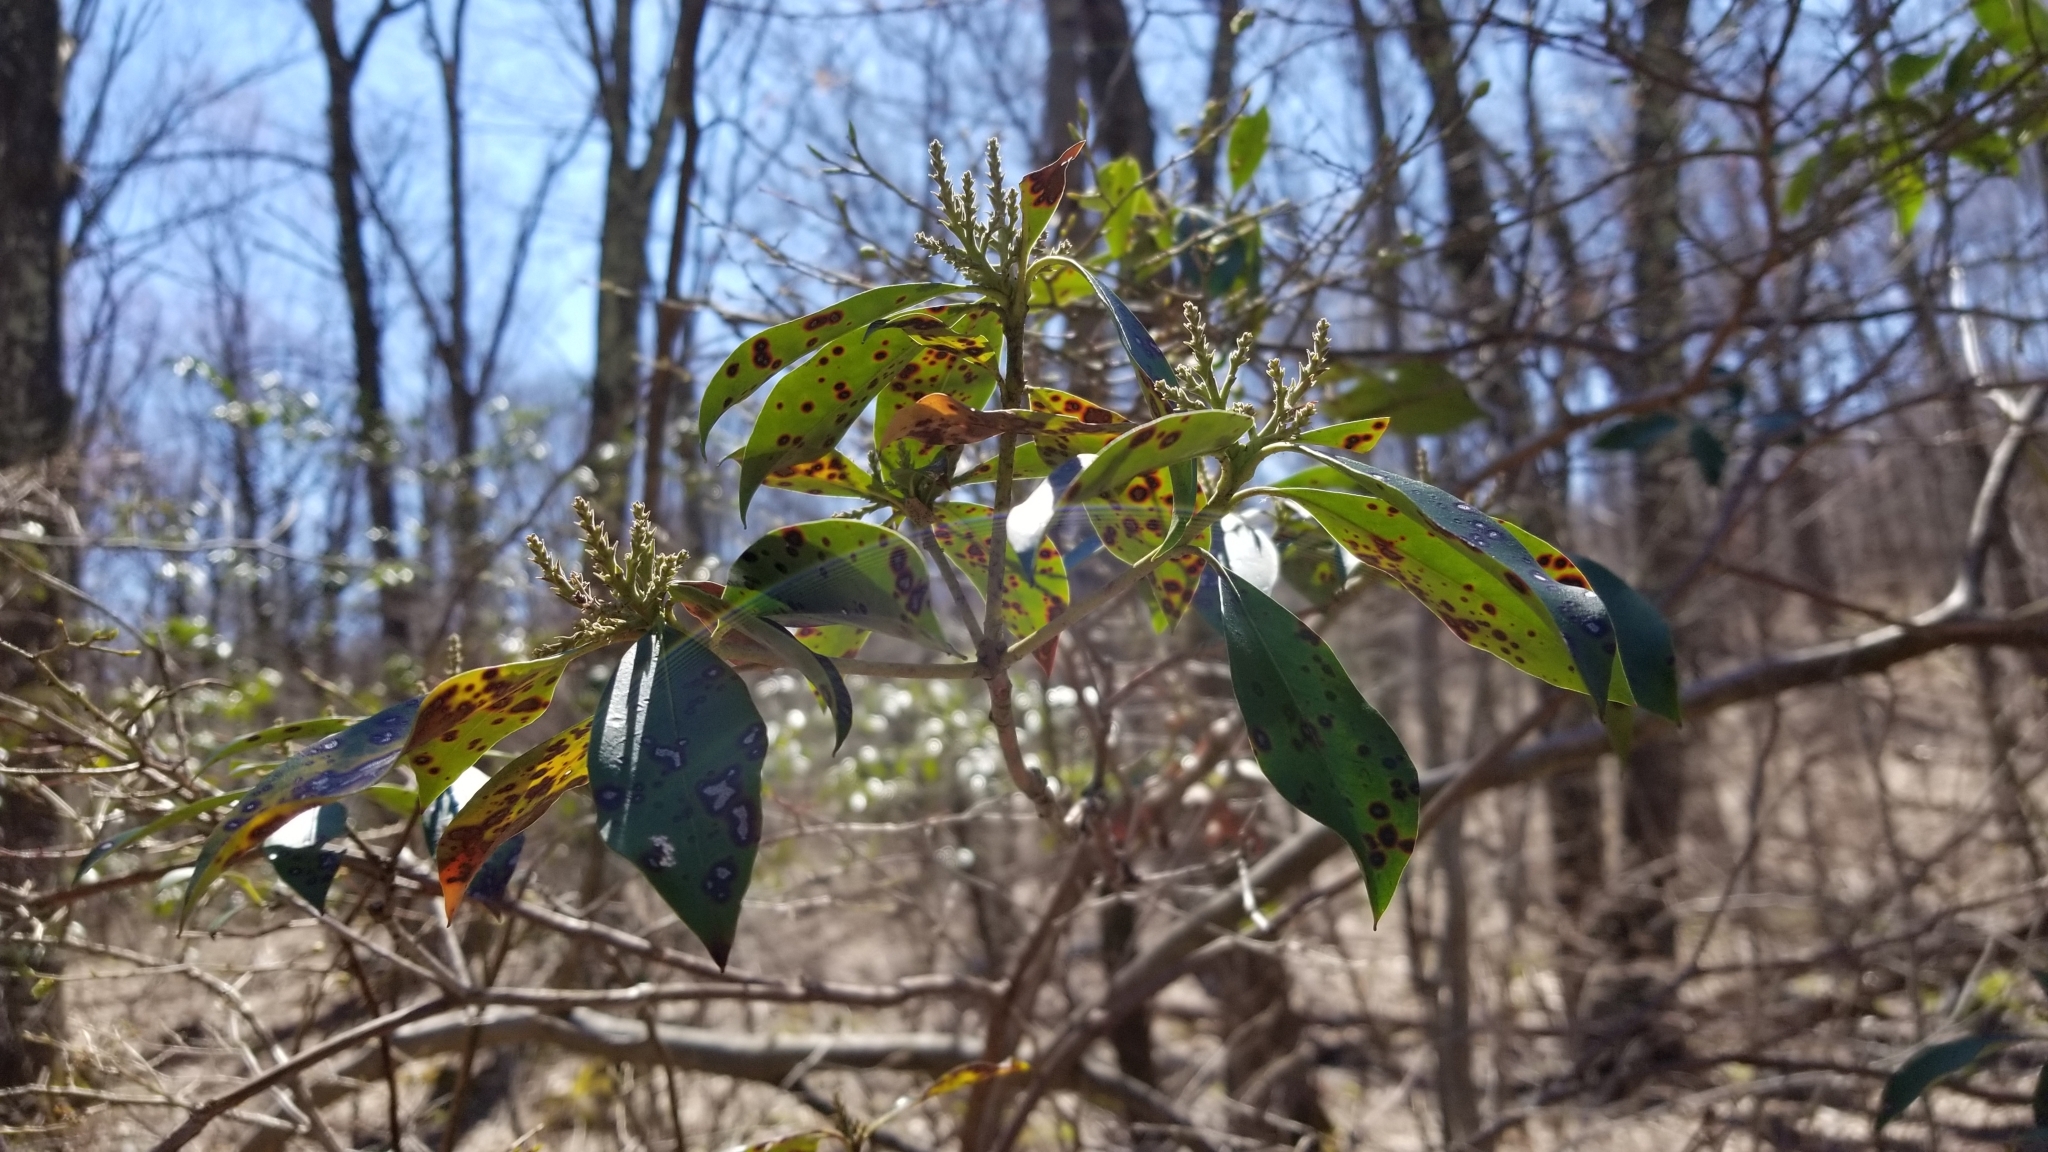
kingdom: Plantae
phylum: Tracheophyta
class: Magnoliopsida
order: Ericales
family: Ericaceae
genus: Kalmia
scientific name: Kalmia latifolia
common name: Mountain-laurel
